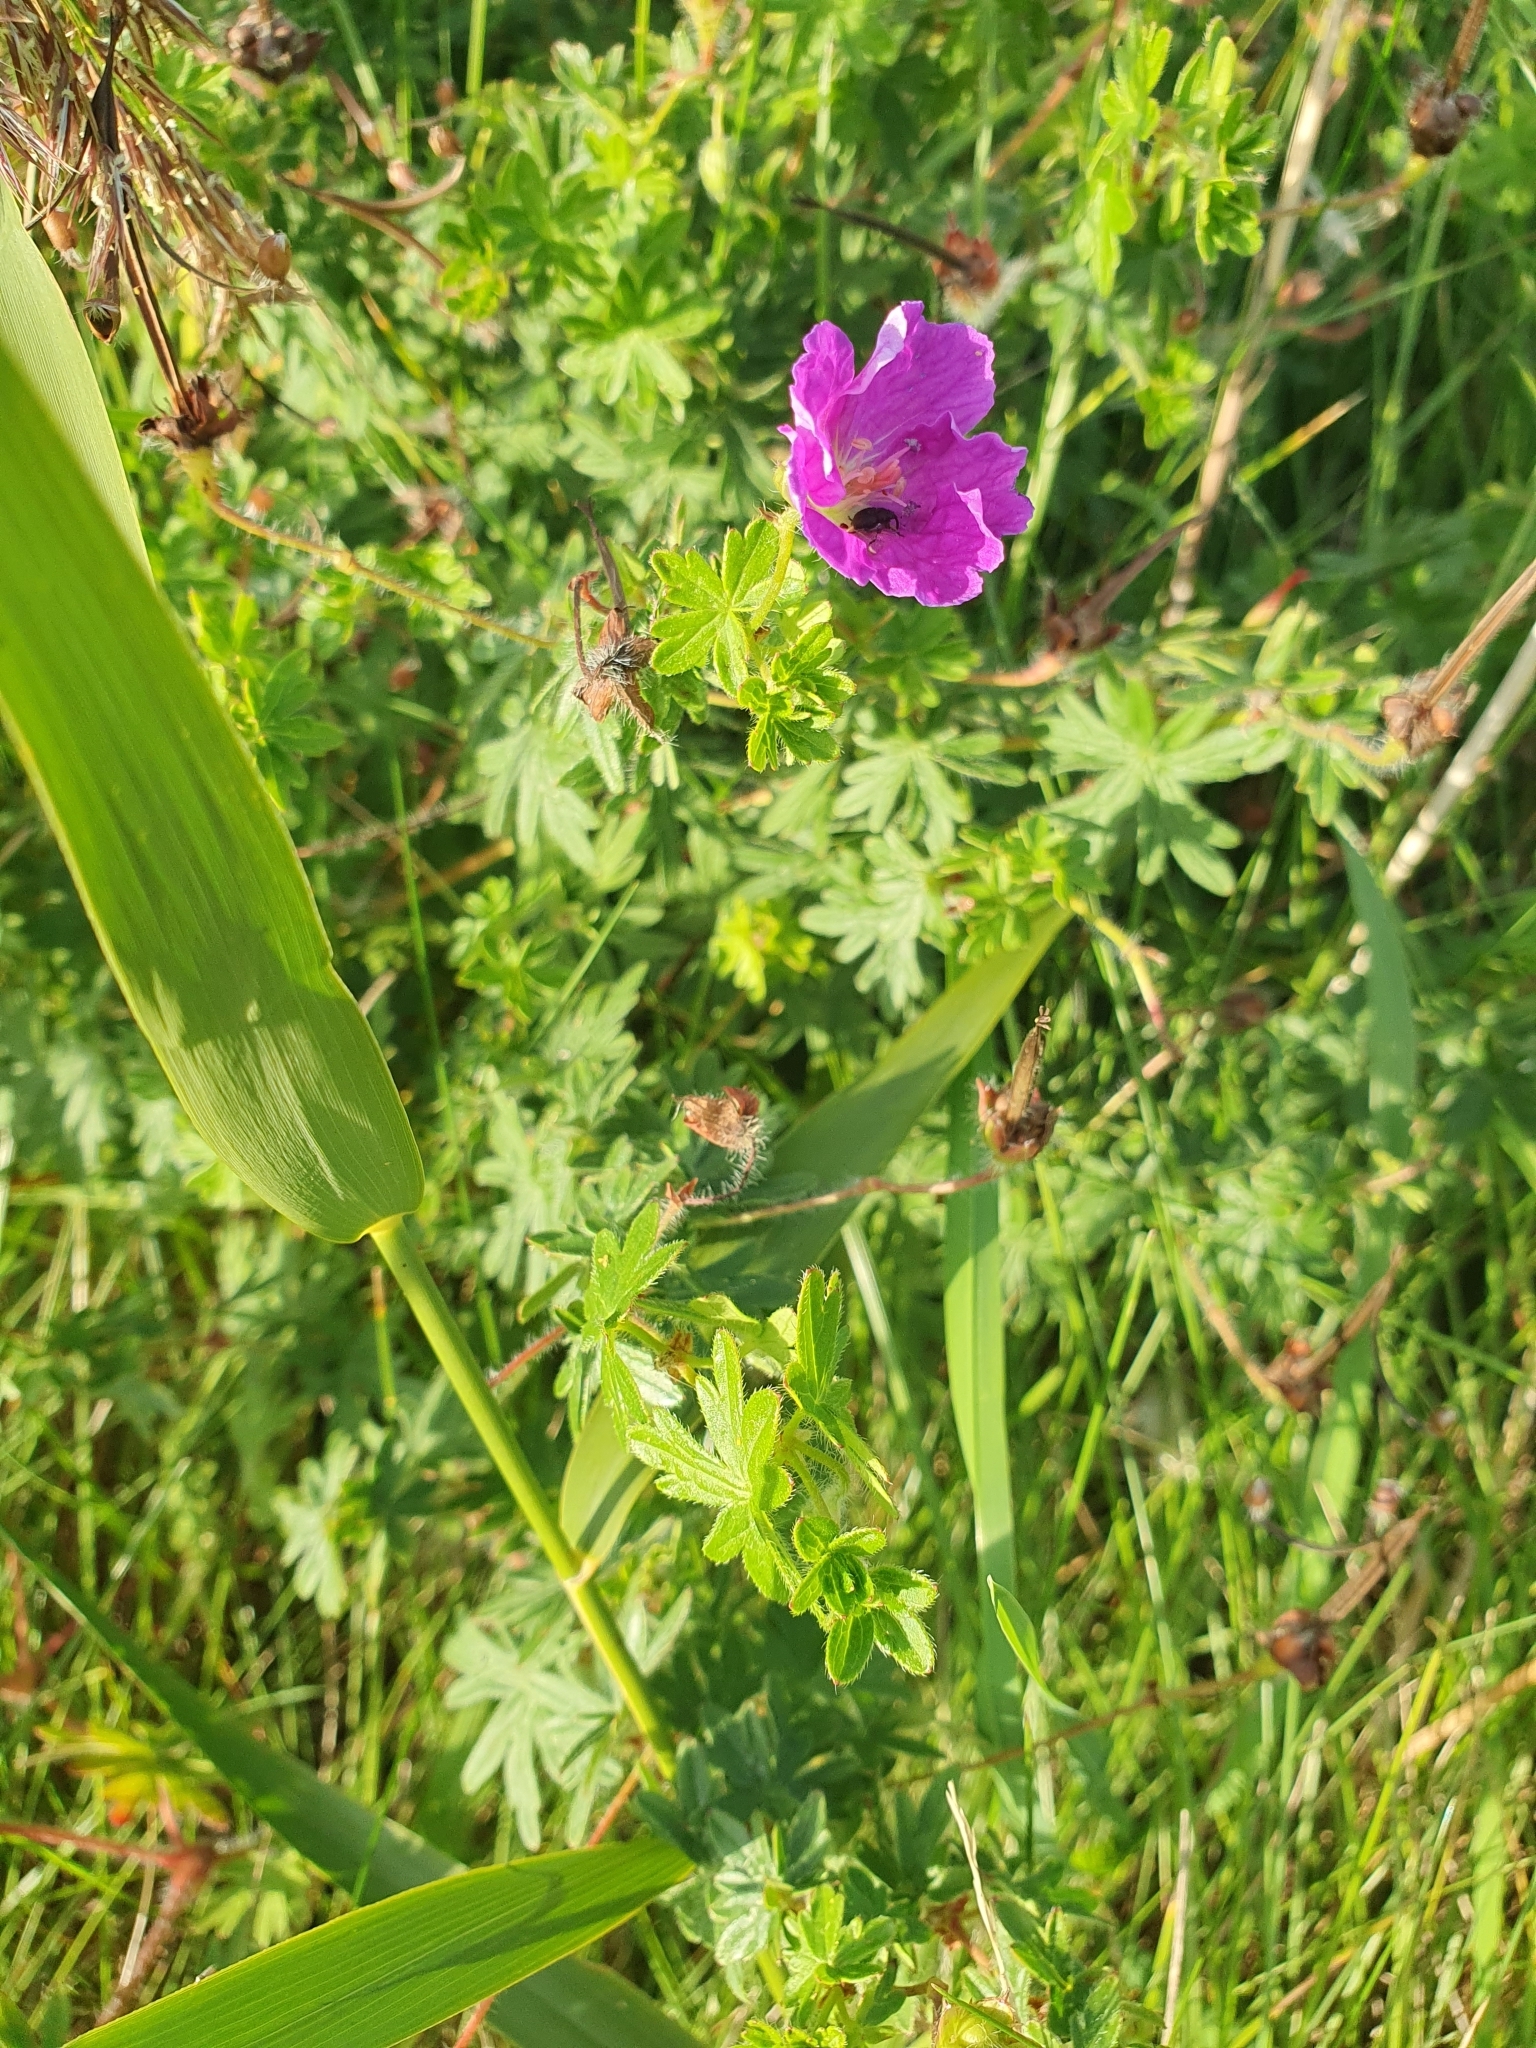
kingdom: Plantae
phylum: Tracheophyta
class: Magnoliopsida
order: Geraniales
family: Geraniaceae
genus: Geranium
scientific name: Geranium sanguineum
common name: Bloody crane's-bill
